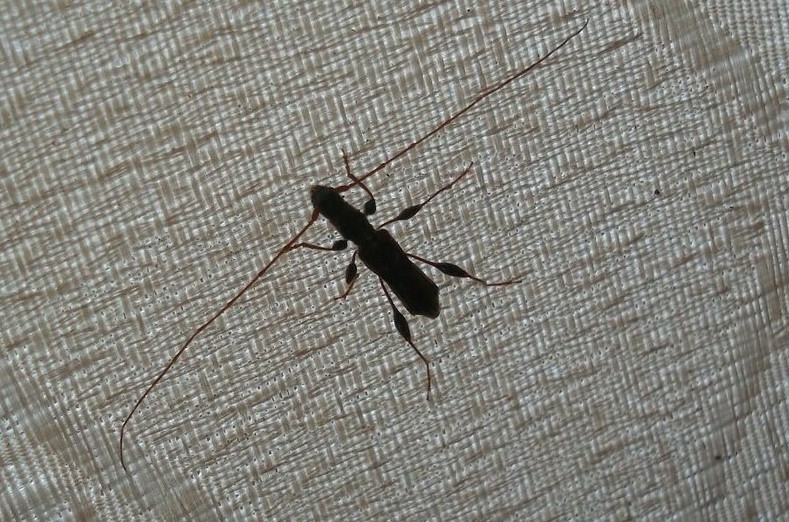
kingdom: Animalia
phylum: Arthropoda
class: Insecta
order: Coleoptera
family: Cerambycidae
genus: Molorchus
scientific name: Molorchus minor
